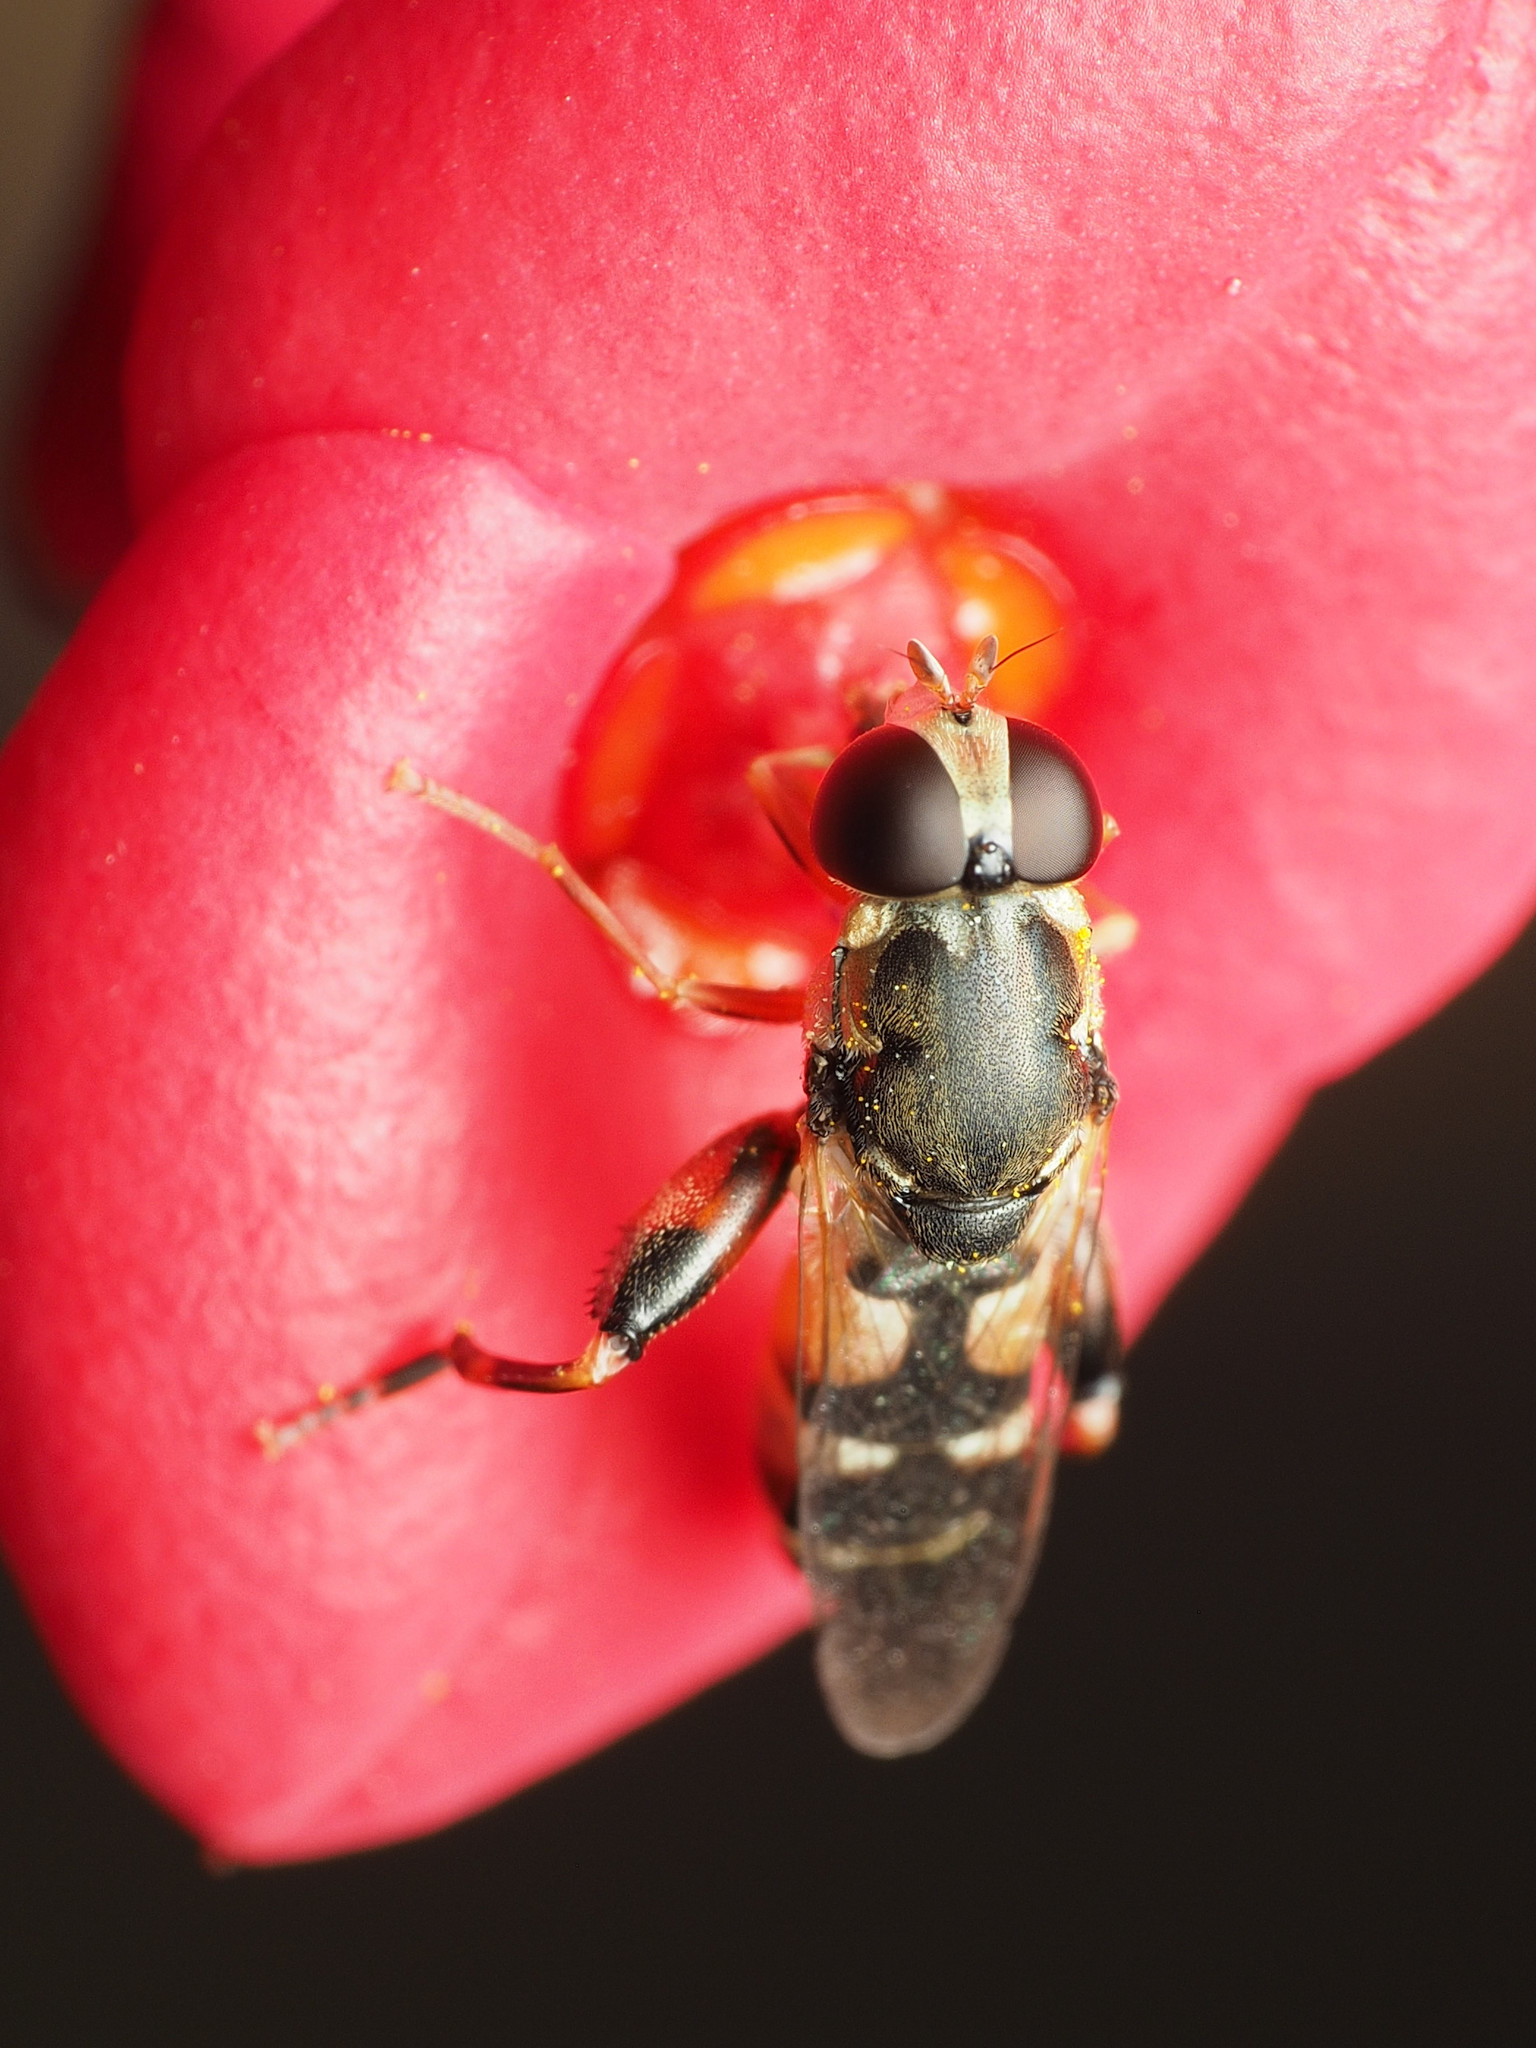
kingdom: Animalia
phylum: Arthropoda
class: Insecta
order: Diptera
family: Syrphidae
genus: Syritta
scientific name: Syritta pipiens
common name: Hover fly
